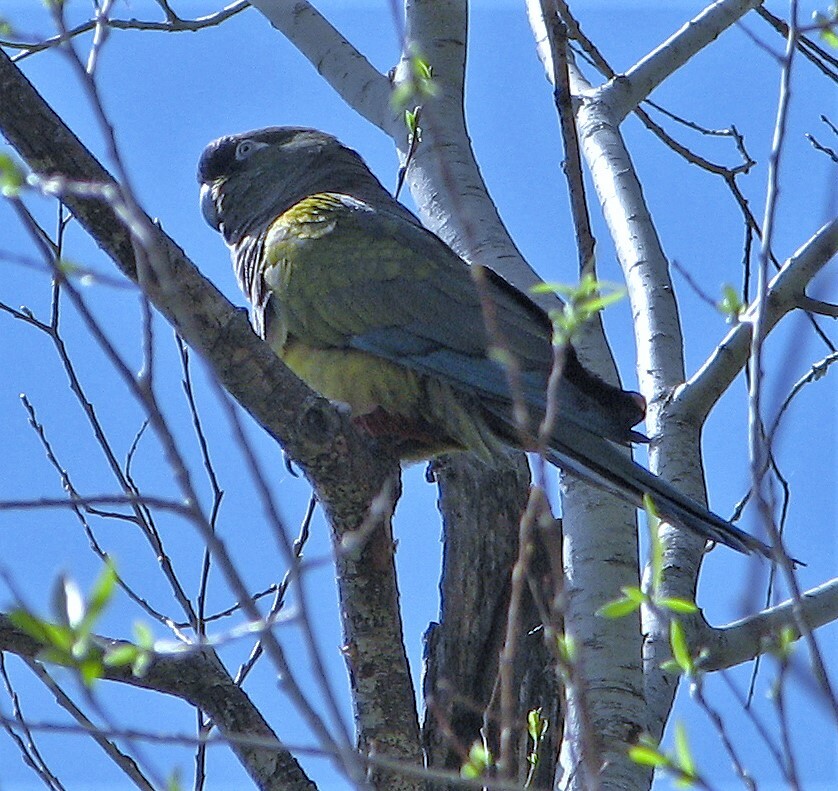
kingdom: Animalia
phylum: Chordata
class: Aves
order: Psittaciformes
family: Psittacidae
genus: Cyanoliseus
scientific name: Cyanoliseus patagonus
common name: Burrowing parrot
